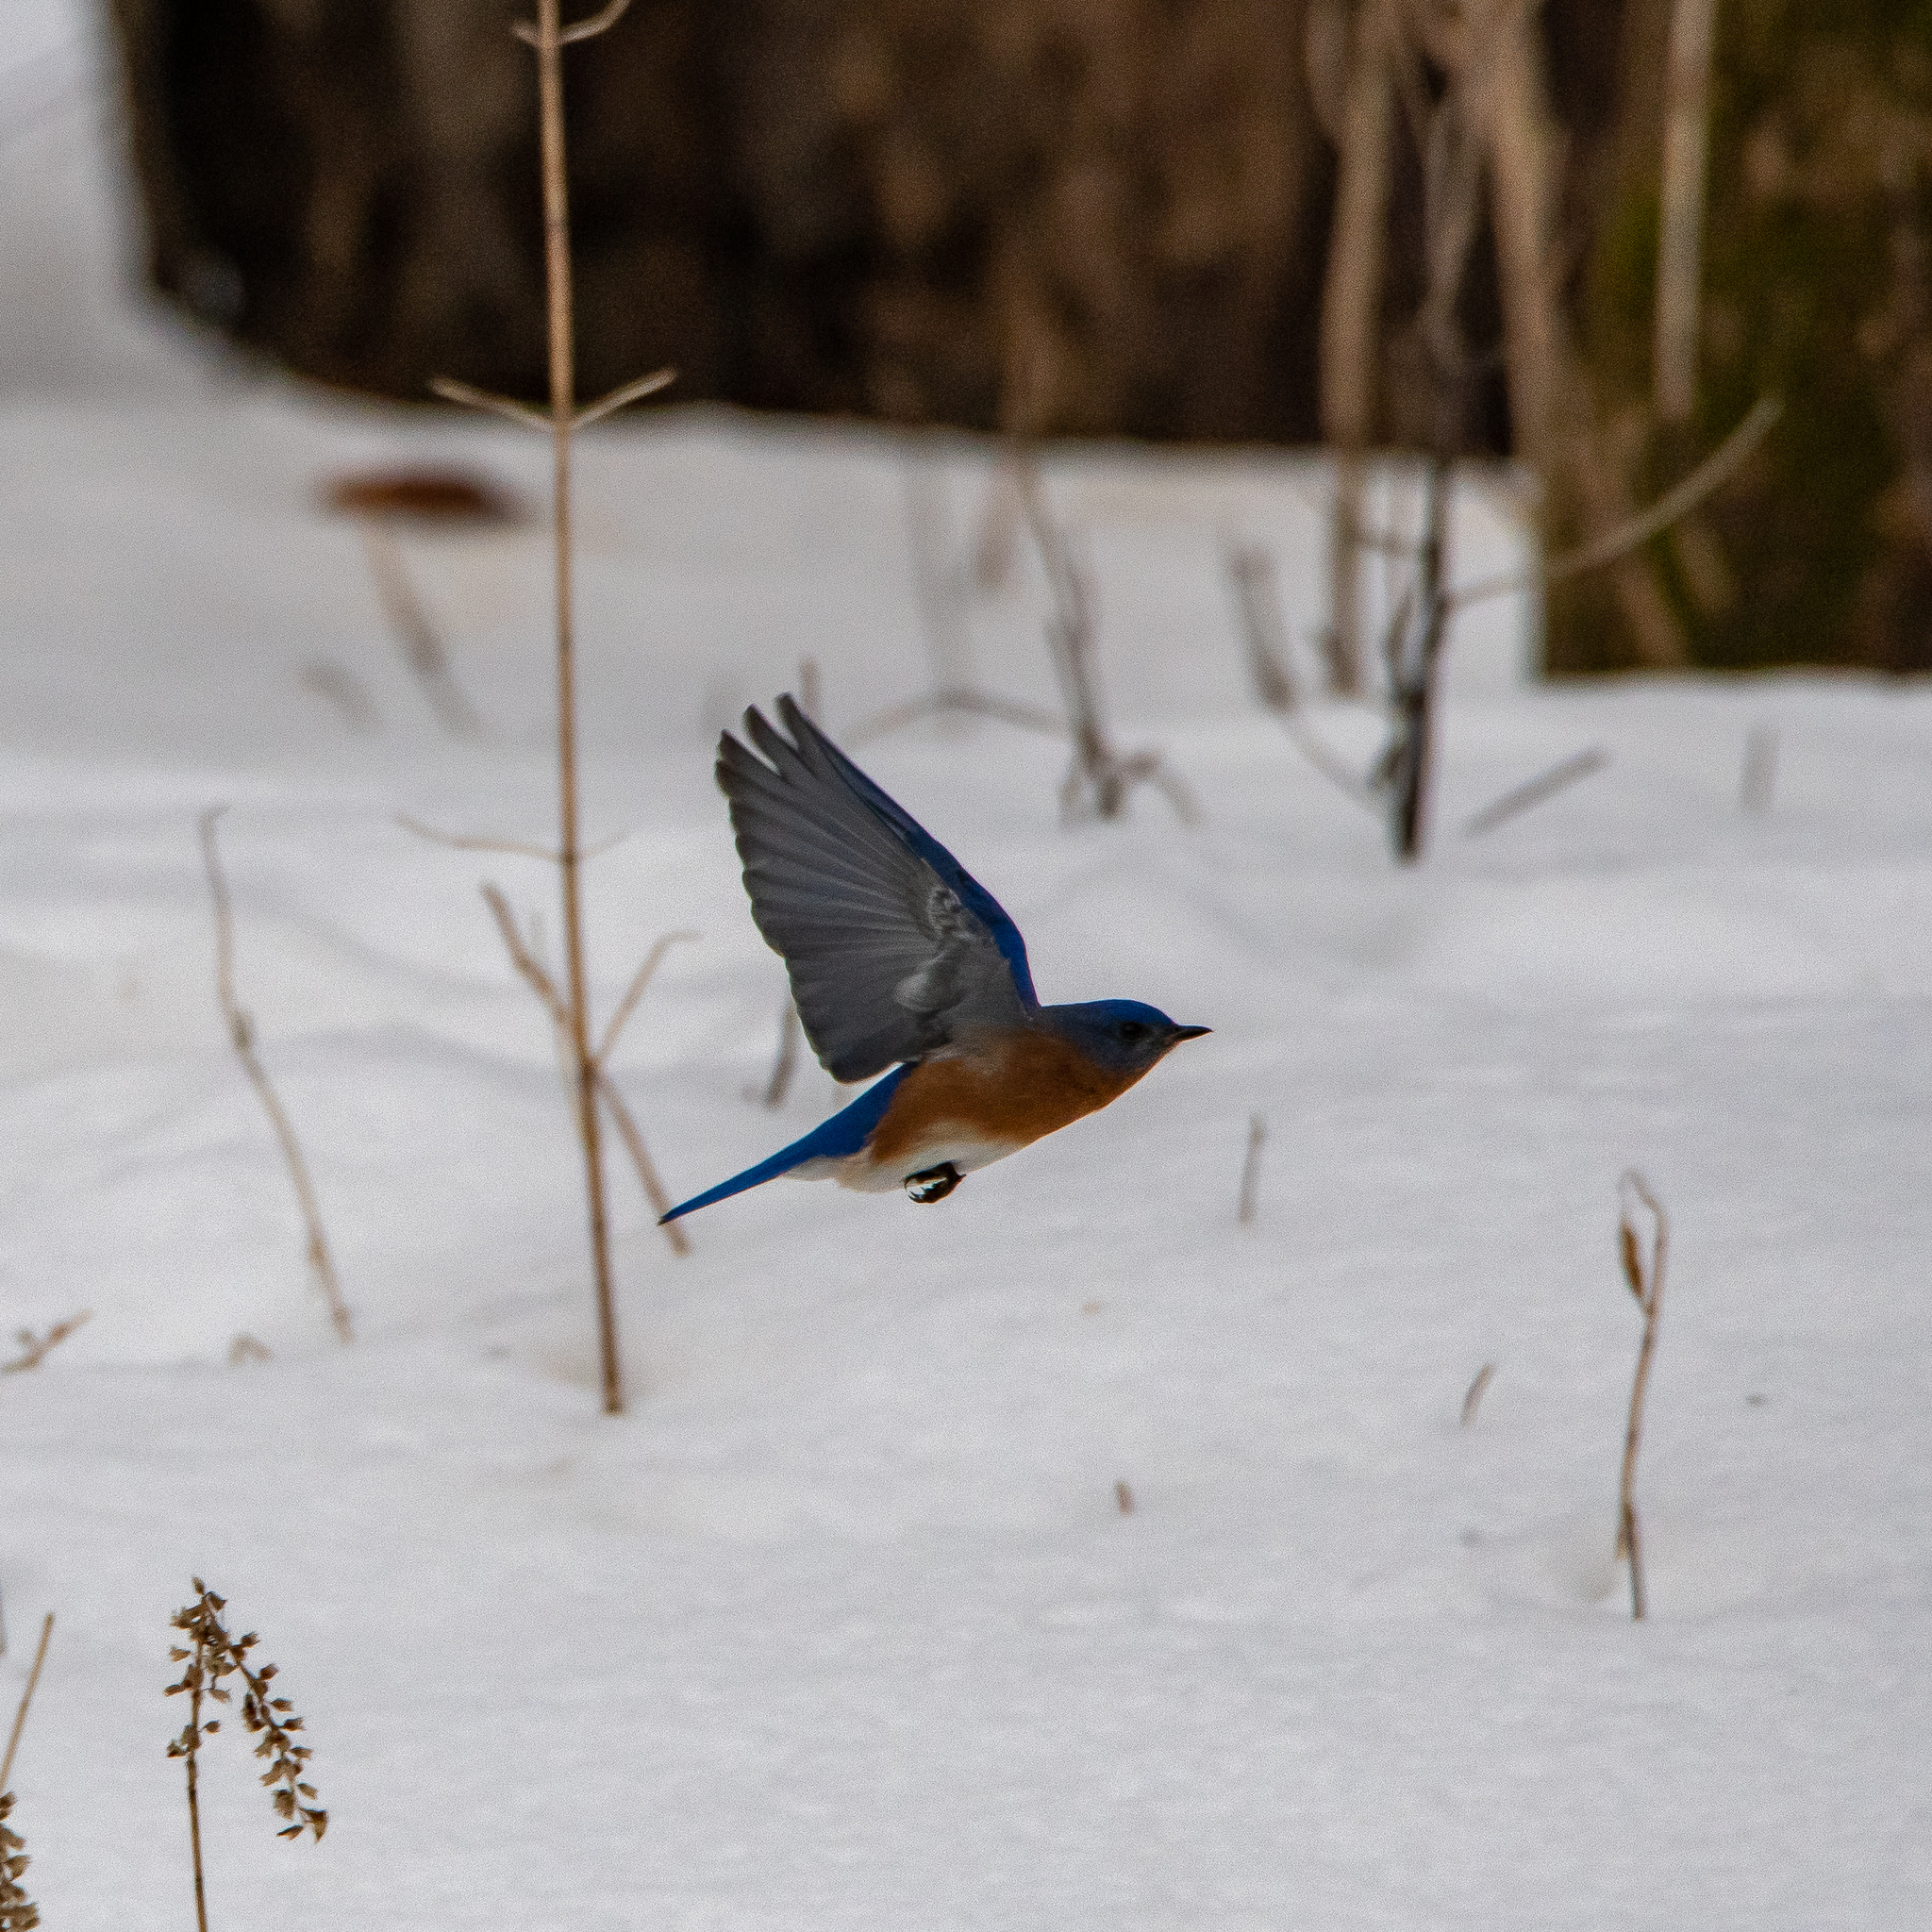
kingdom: Animalia
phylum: Chordata
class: Aves
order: Passeriformes
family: Turdidae
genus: Sialia
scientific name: Sialia sialis
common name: Eastern bluebird
